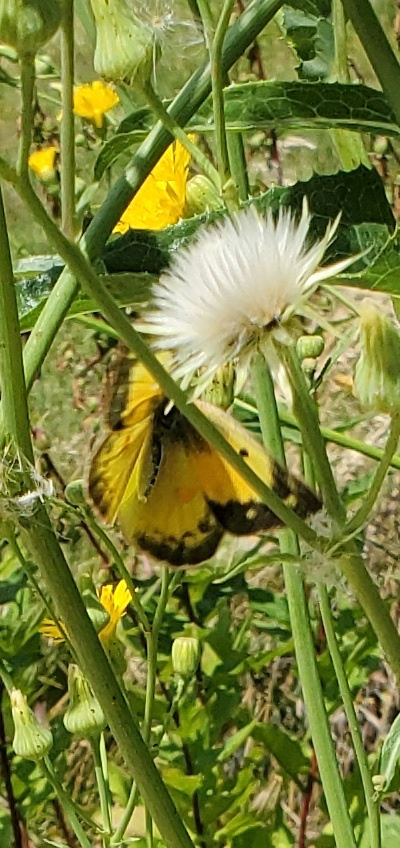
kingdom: Animalia
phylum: Arthropoda
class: Insecta
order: Lepidoptera
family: Pieridae
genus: Colias
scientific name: Colias eurytheme
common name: Alfalfa butterfly
